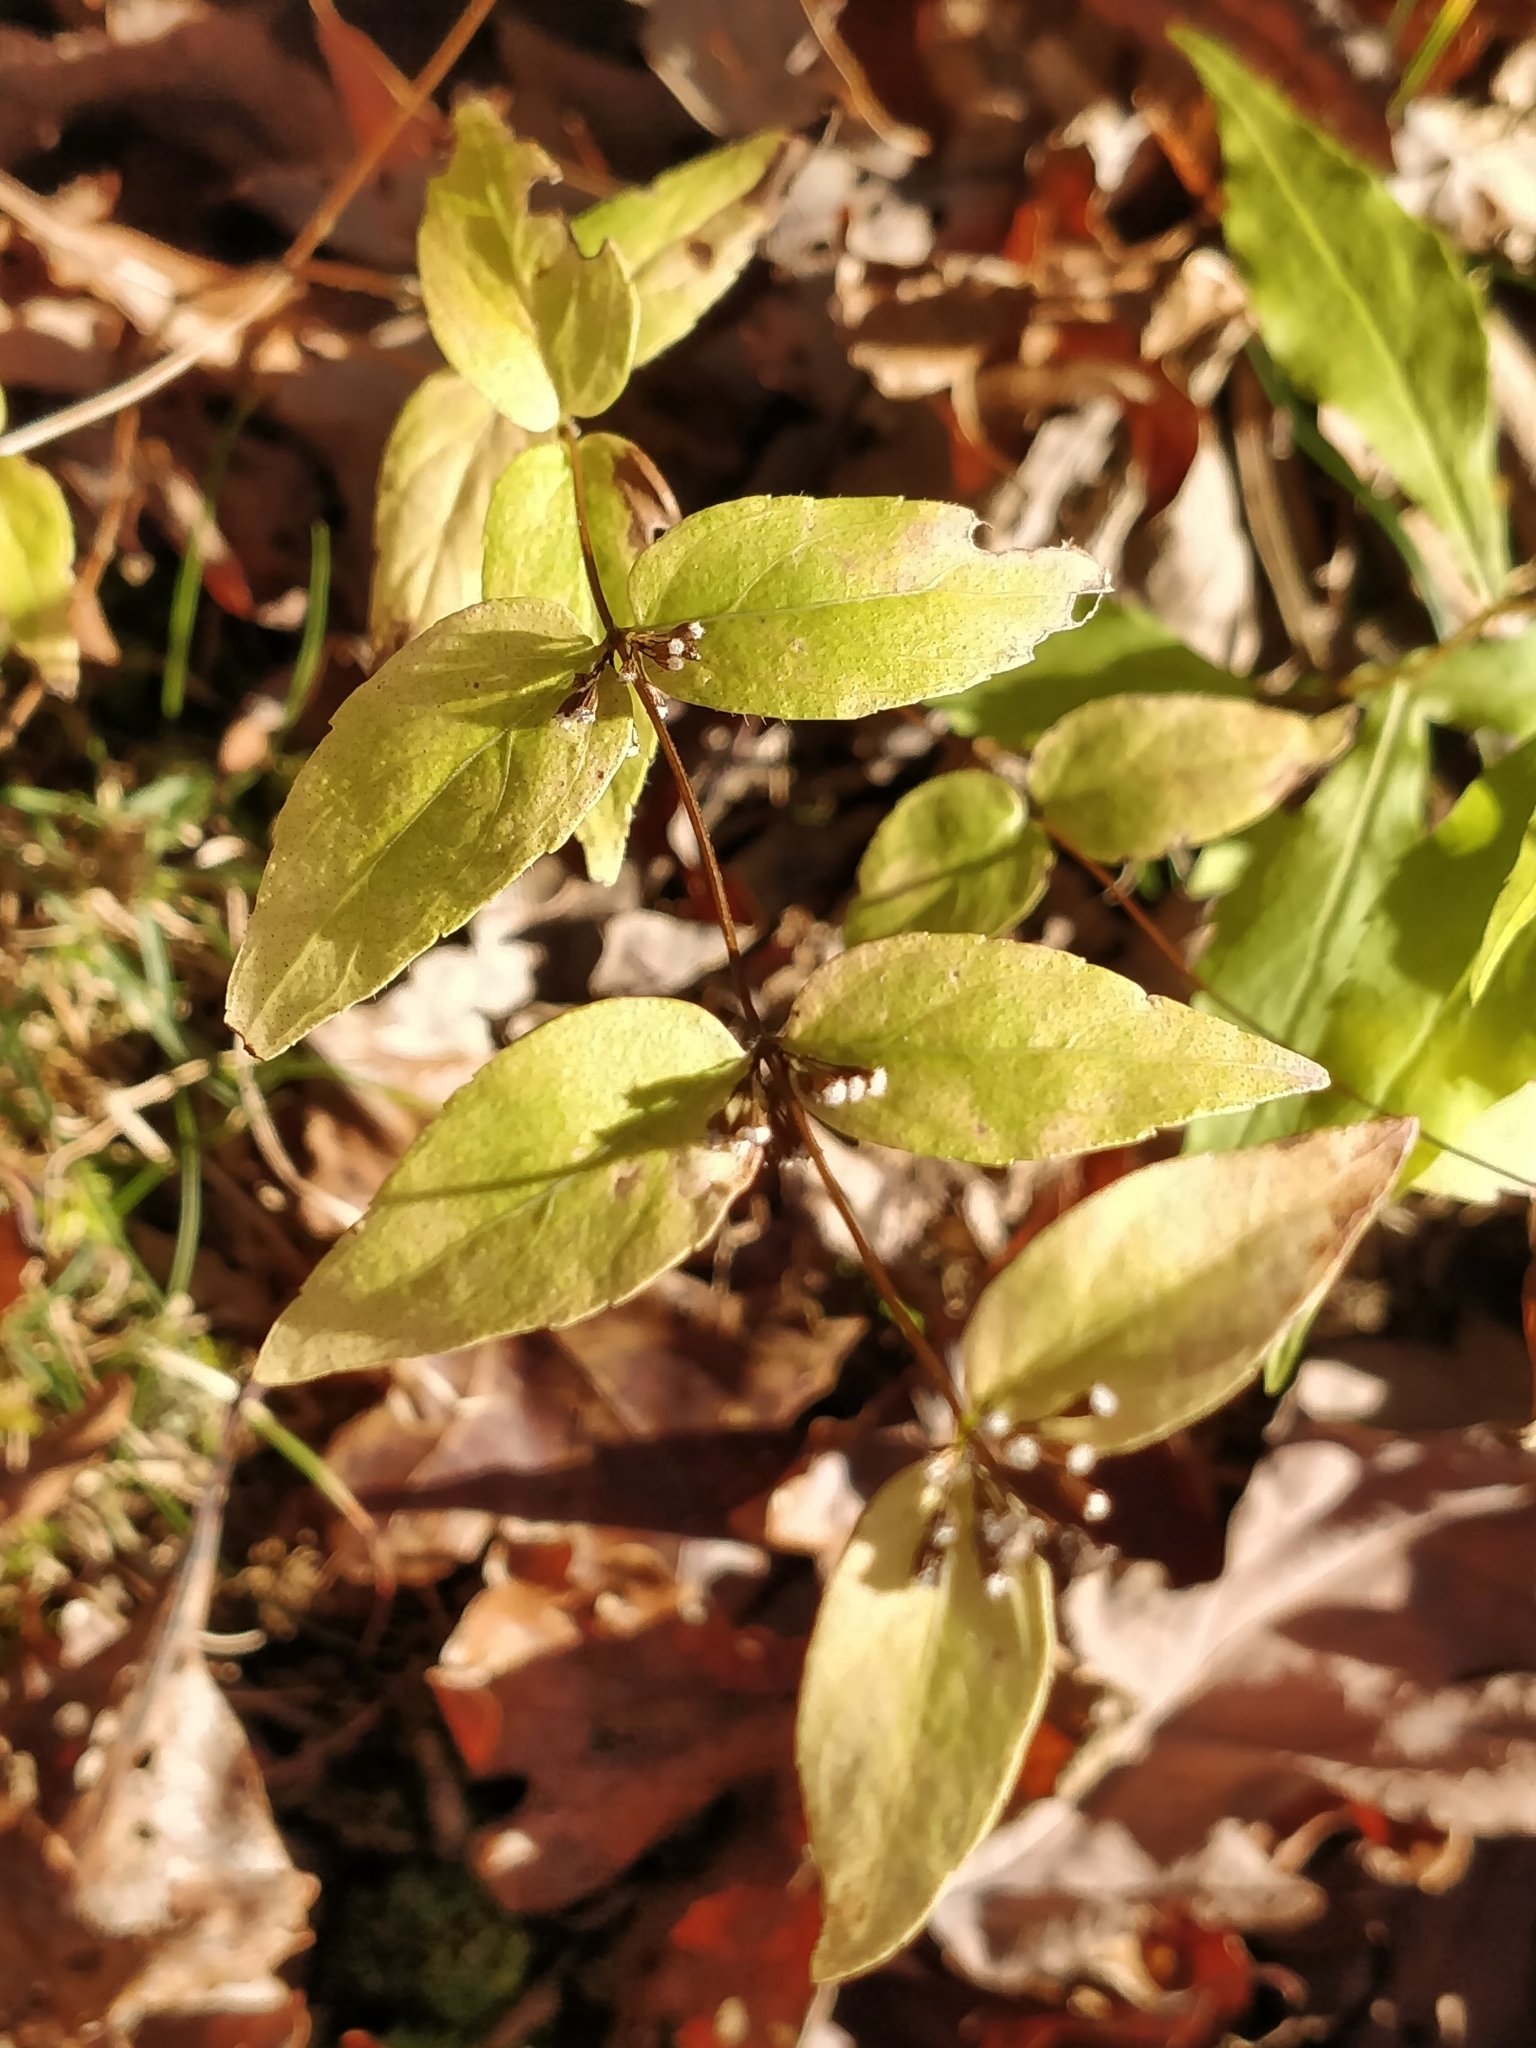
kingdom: Plantae
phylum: Tracheophyta
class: Magnoliopsida
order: Lamiales
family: Lamiaceae
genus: Cunila
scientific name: Cunila origanoides
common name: American dittany
